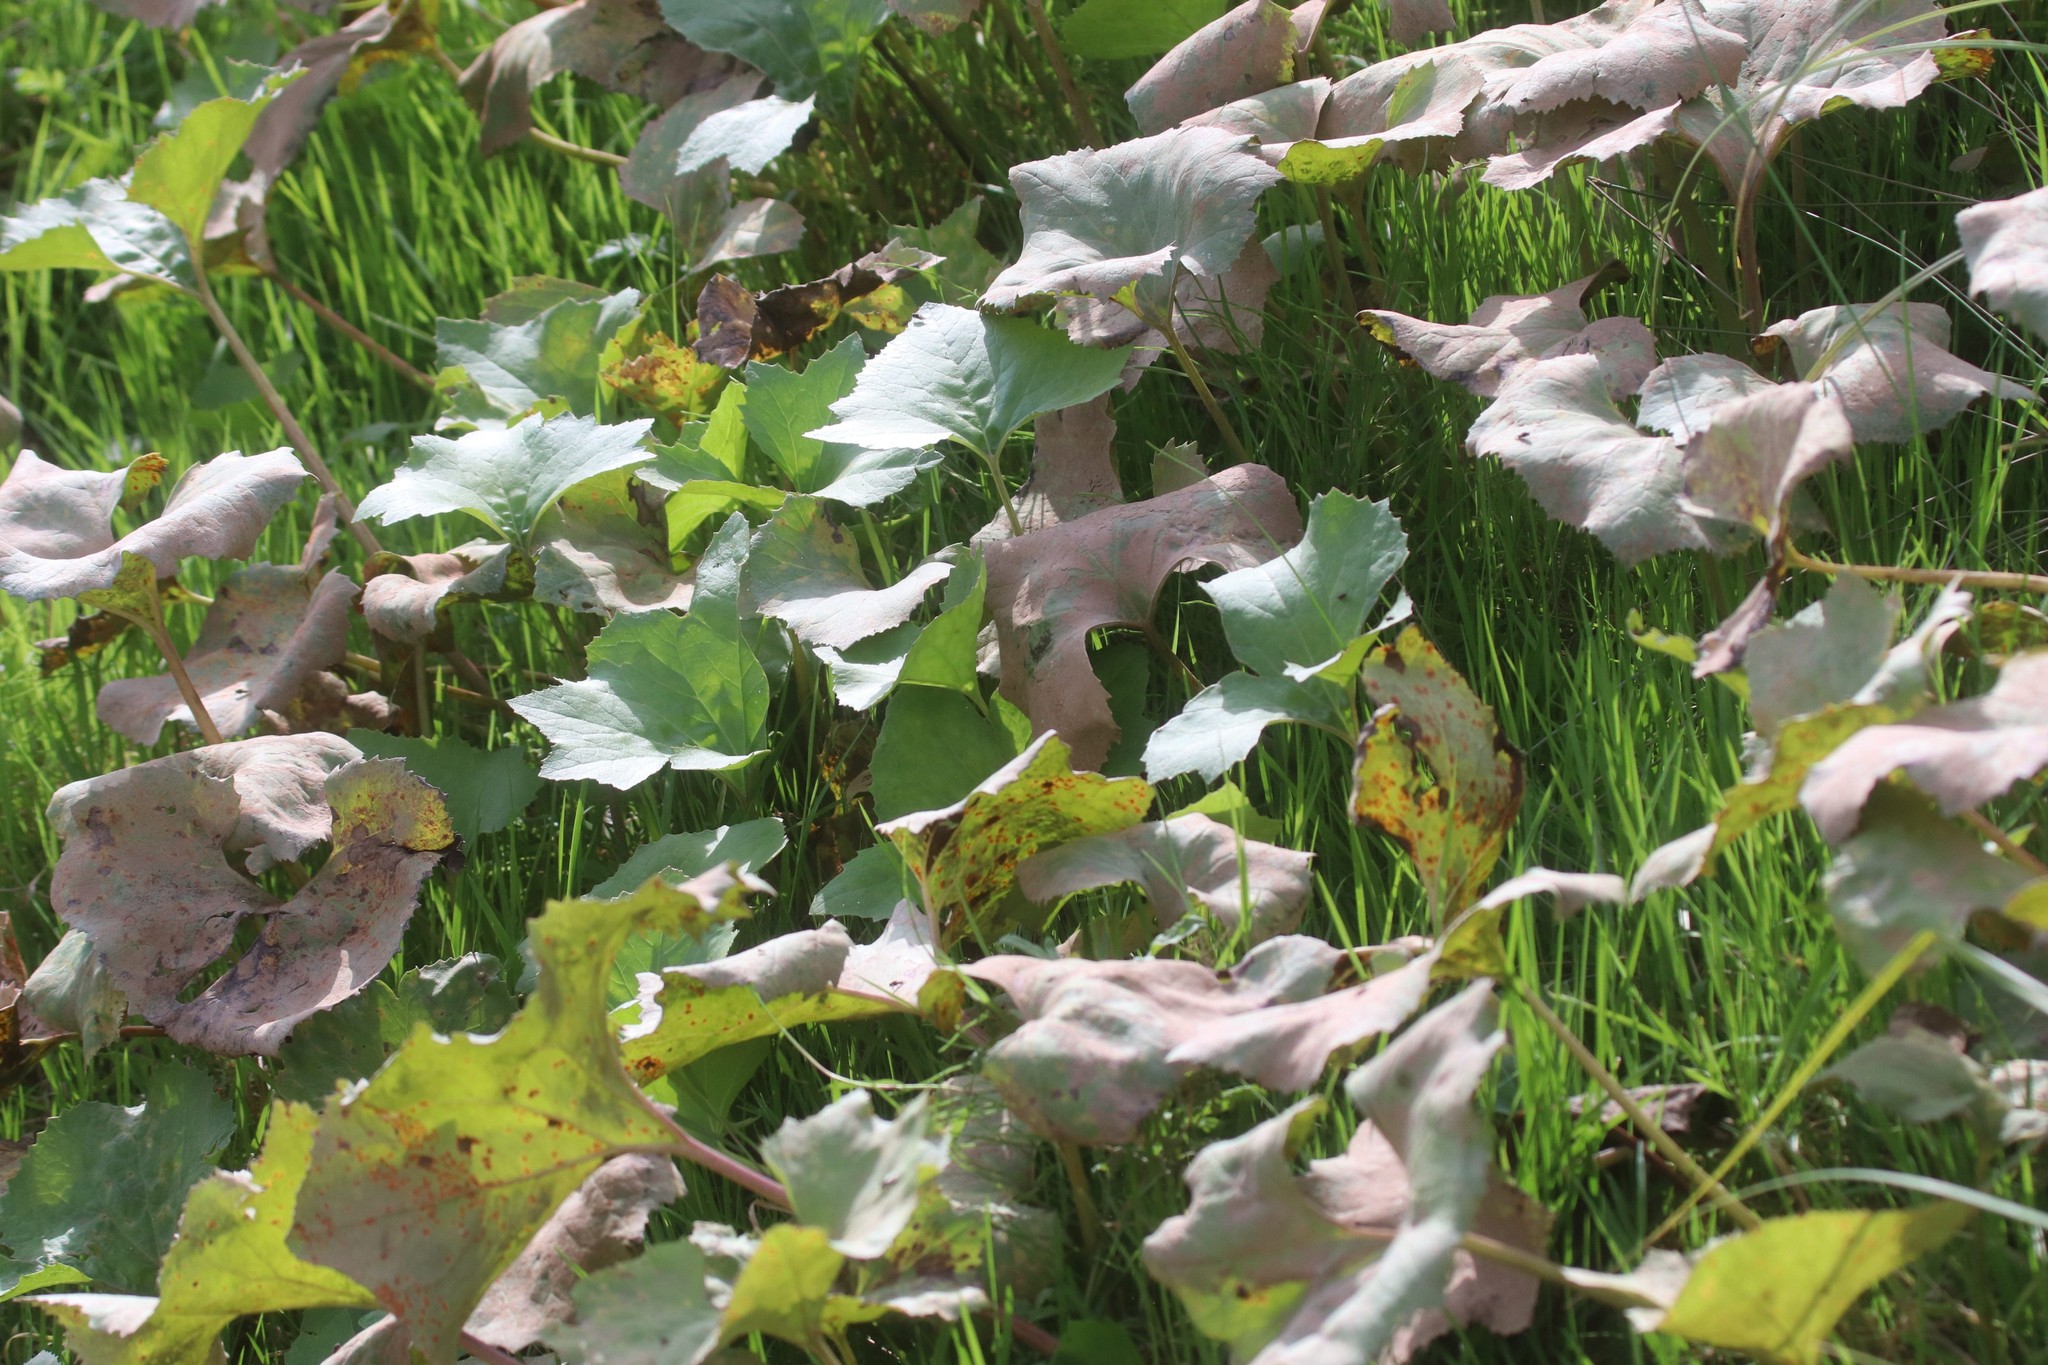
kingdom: Plantae
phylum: Tracheophyta
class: Magnoliopsida
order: Asterales
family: Asteraceae
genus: Petasites
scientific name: Petasites spurius
